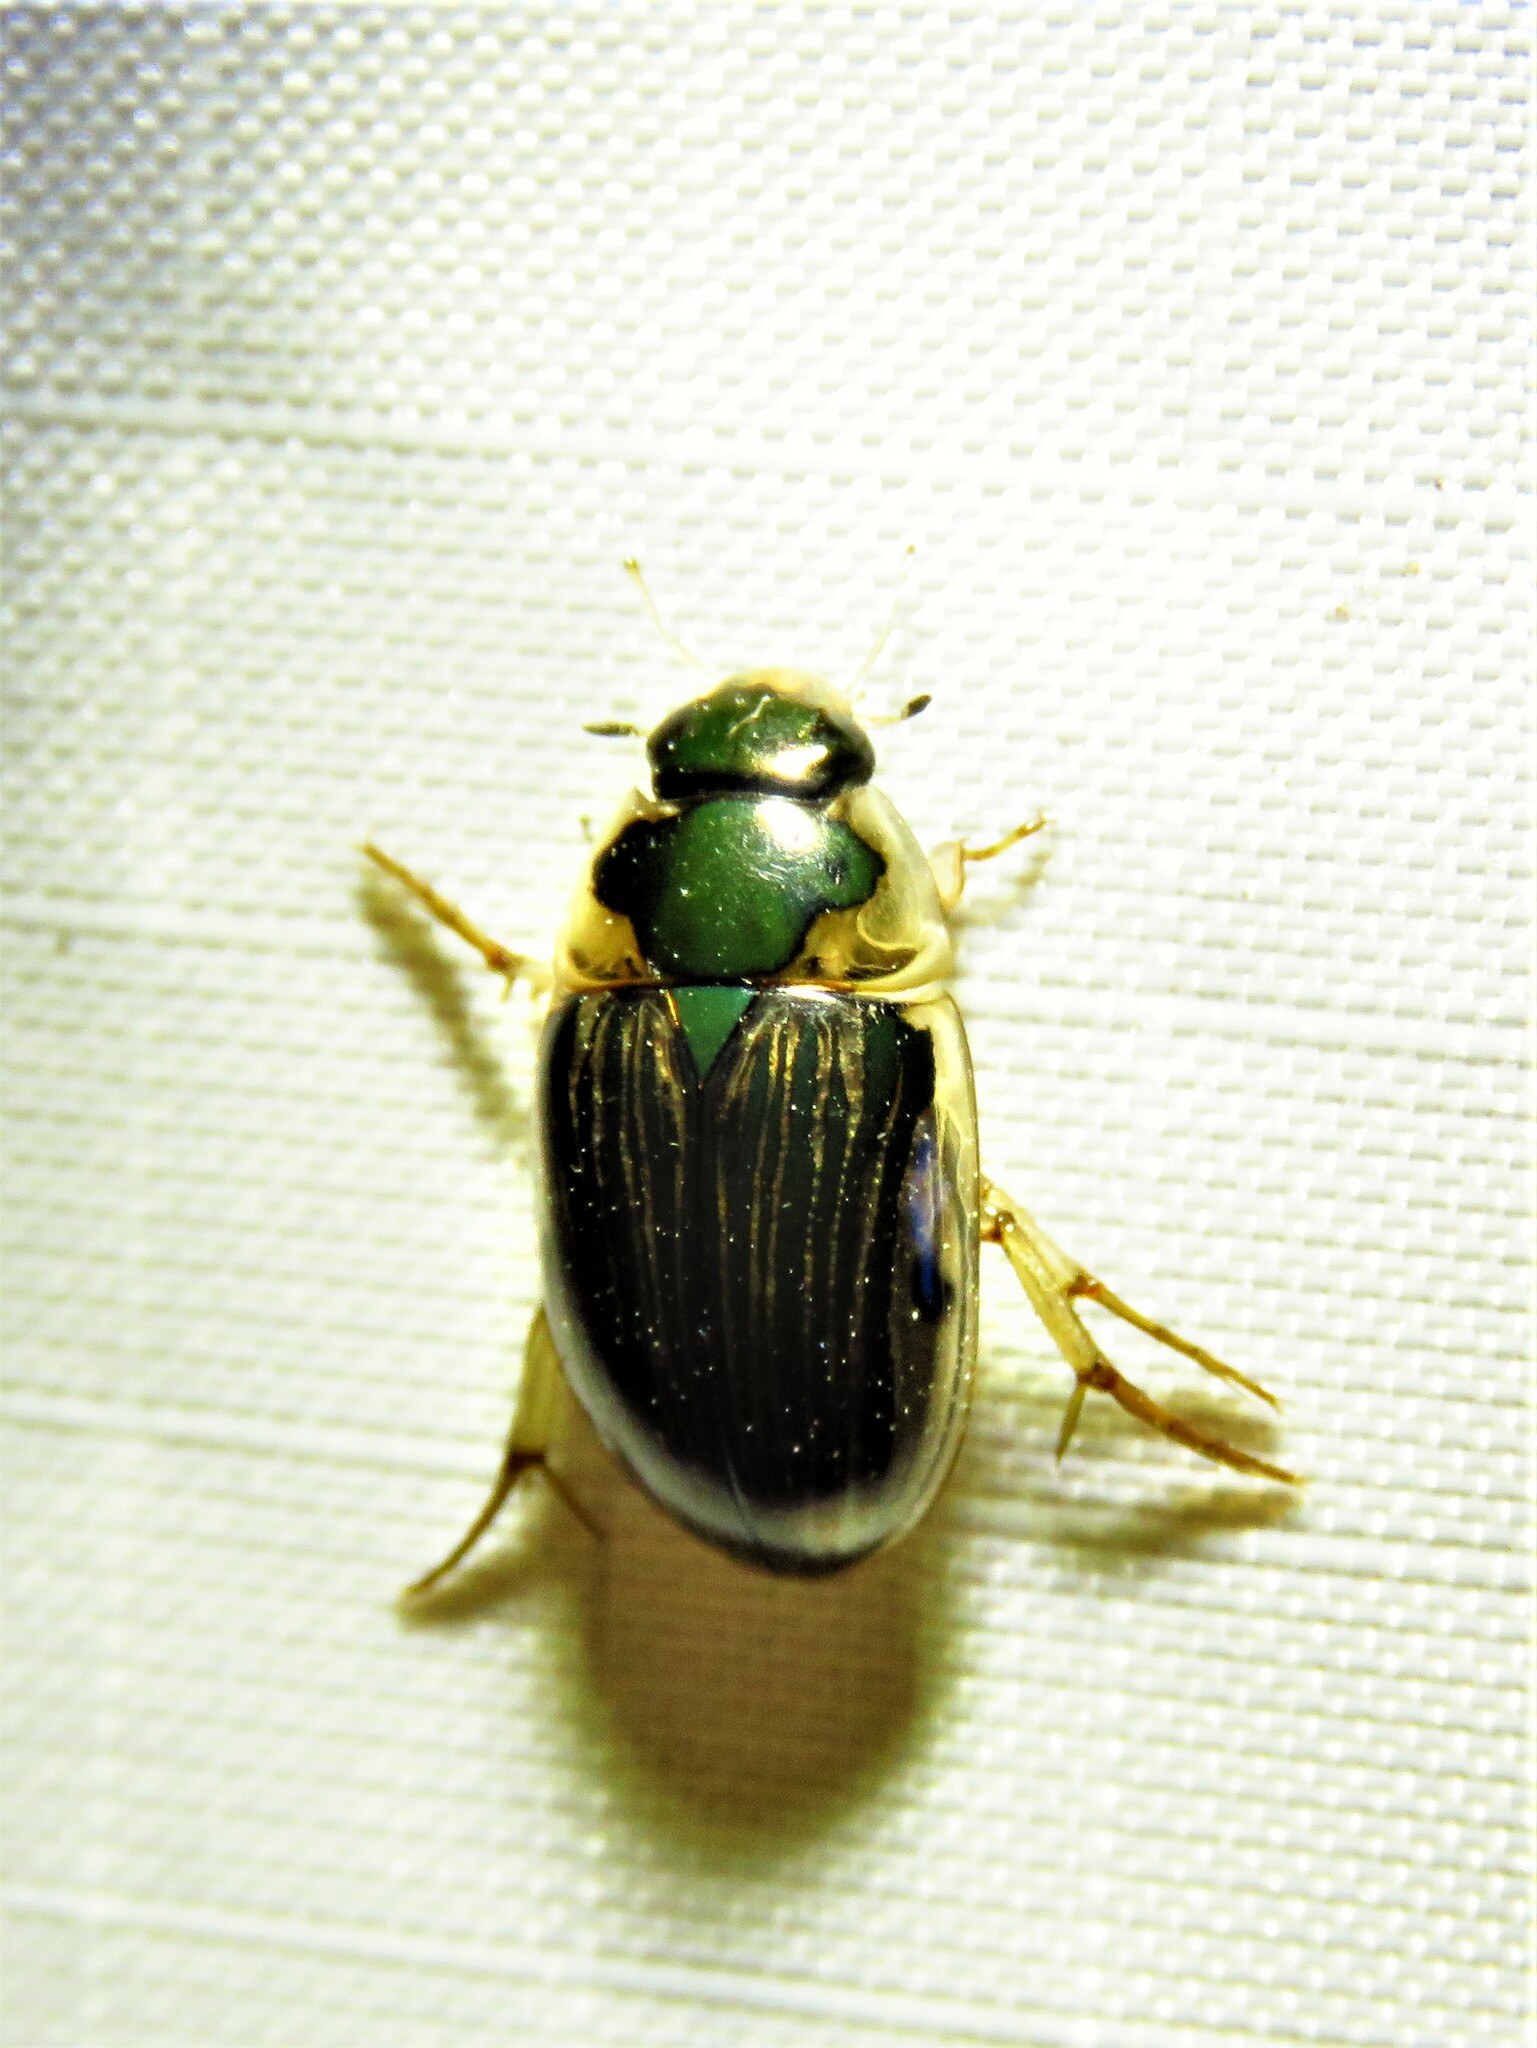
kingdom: Animalia
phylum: Arthropoda
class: Insecta
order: Coleoptera
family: Hydrophilidae
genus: Tropisternus
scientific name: Tropisternus collaris
